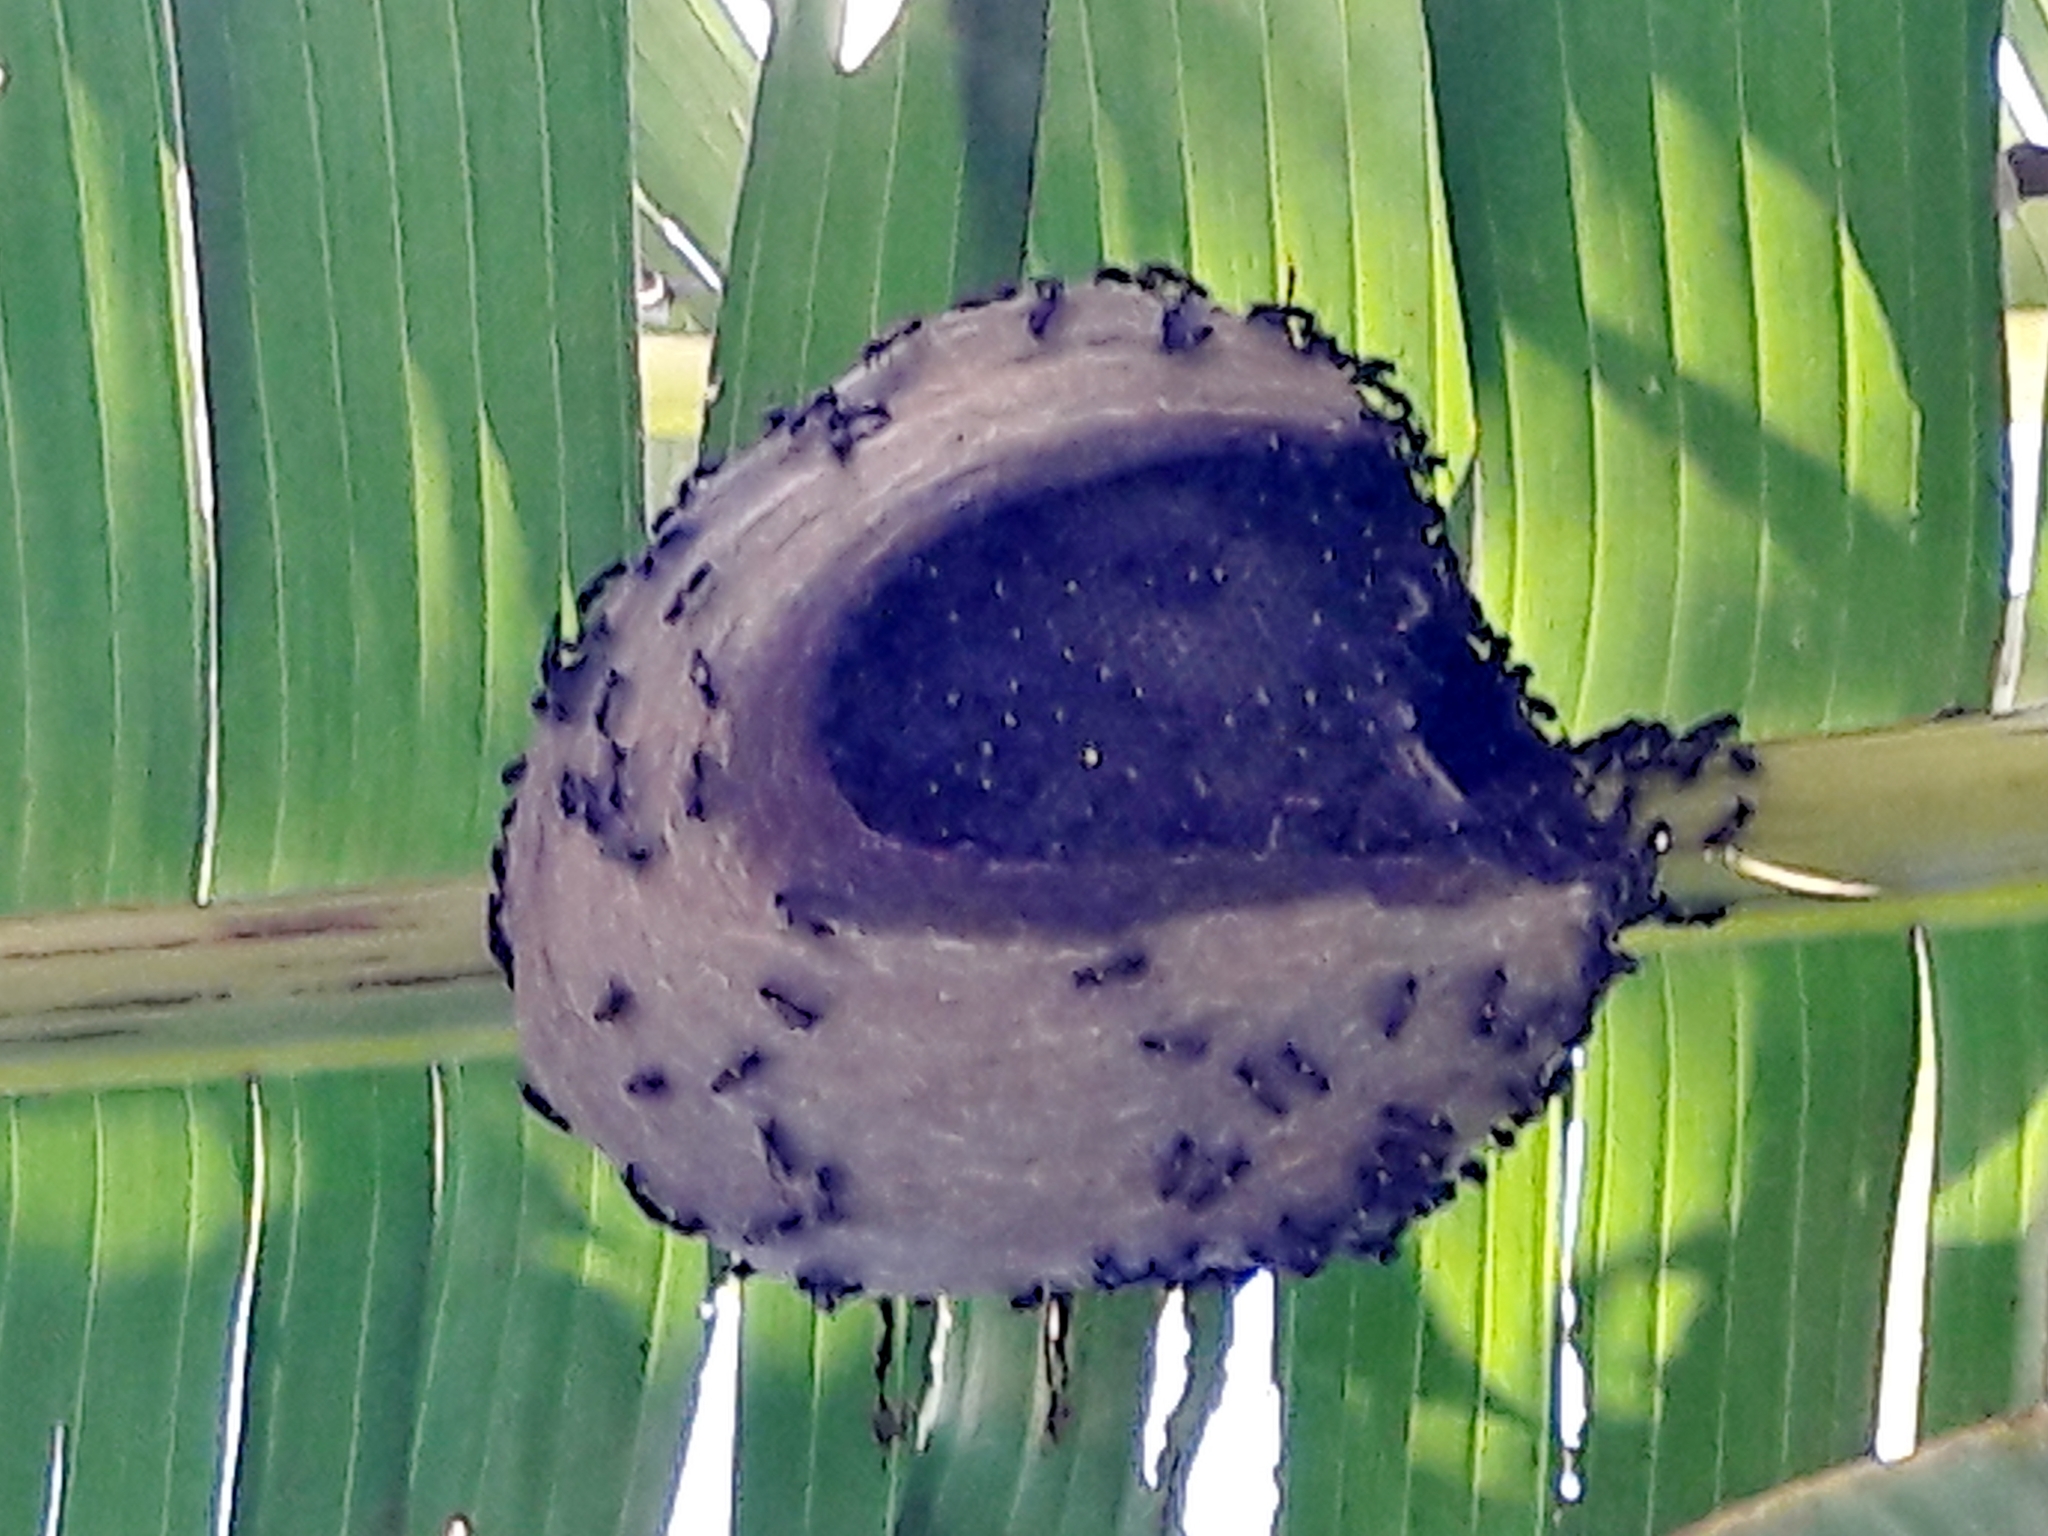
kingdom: Animalia
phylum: Arthropoda
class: Insecta
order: Hymenoptera
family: Eumenidae
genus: Polybia
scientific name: Polybia paulista
